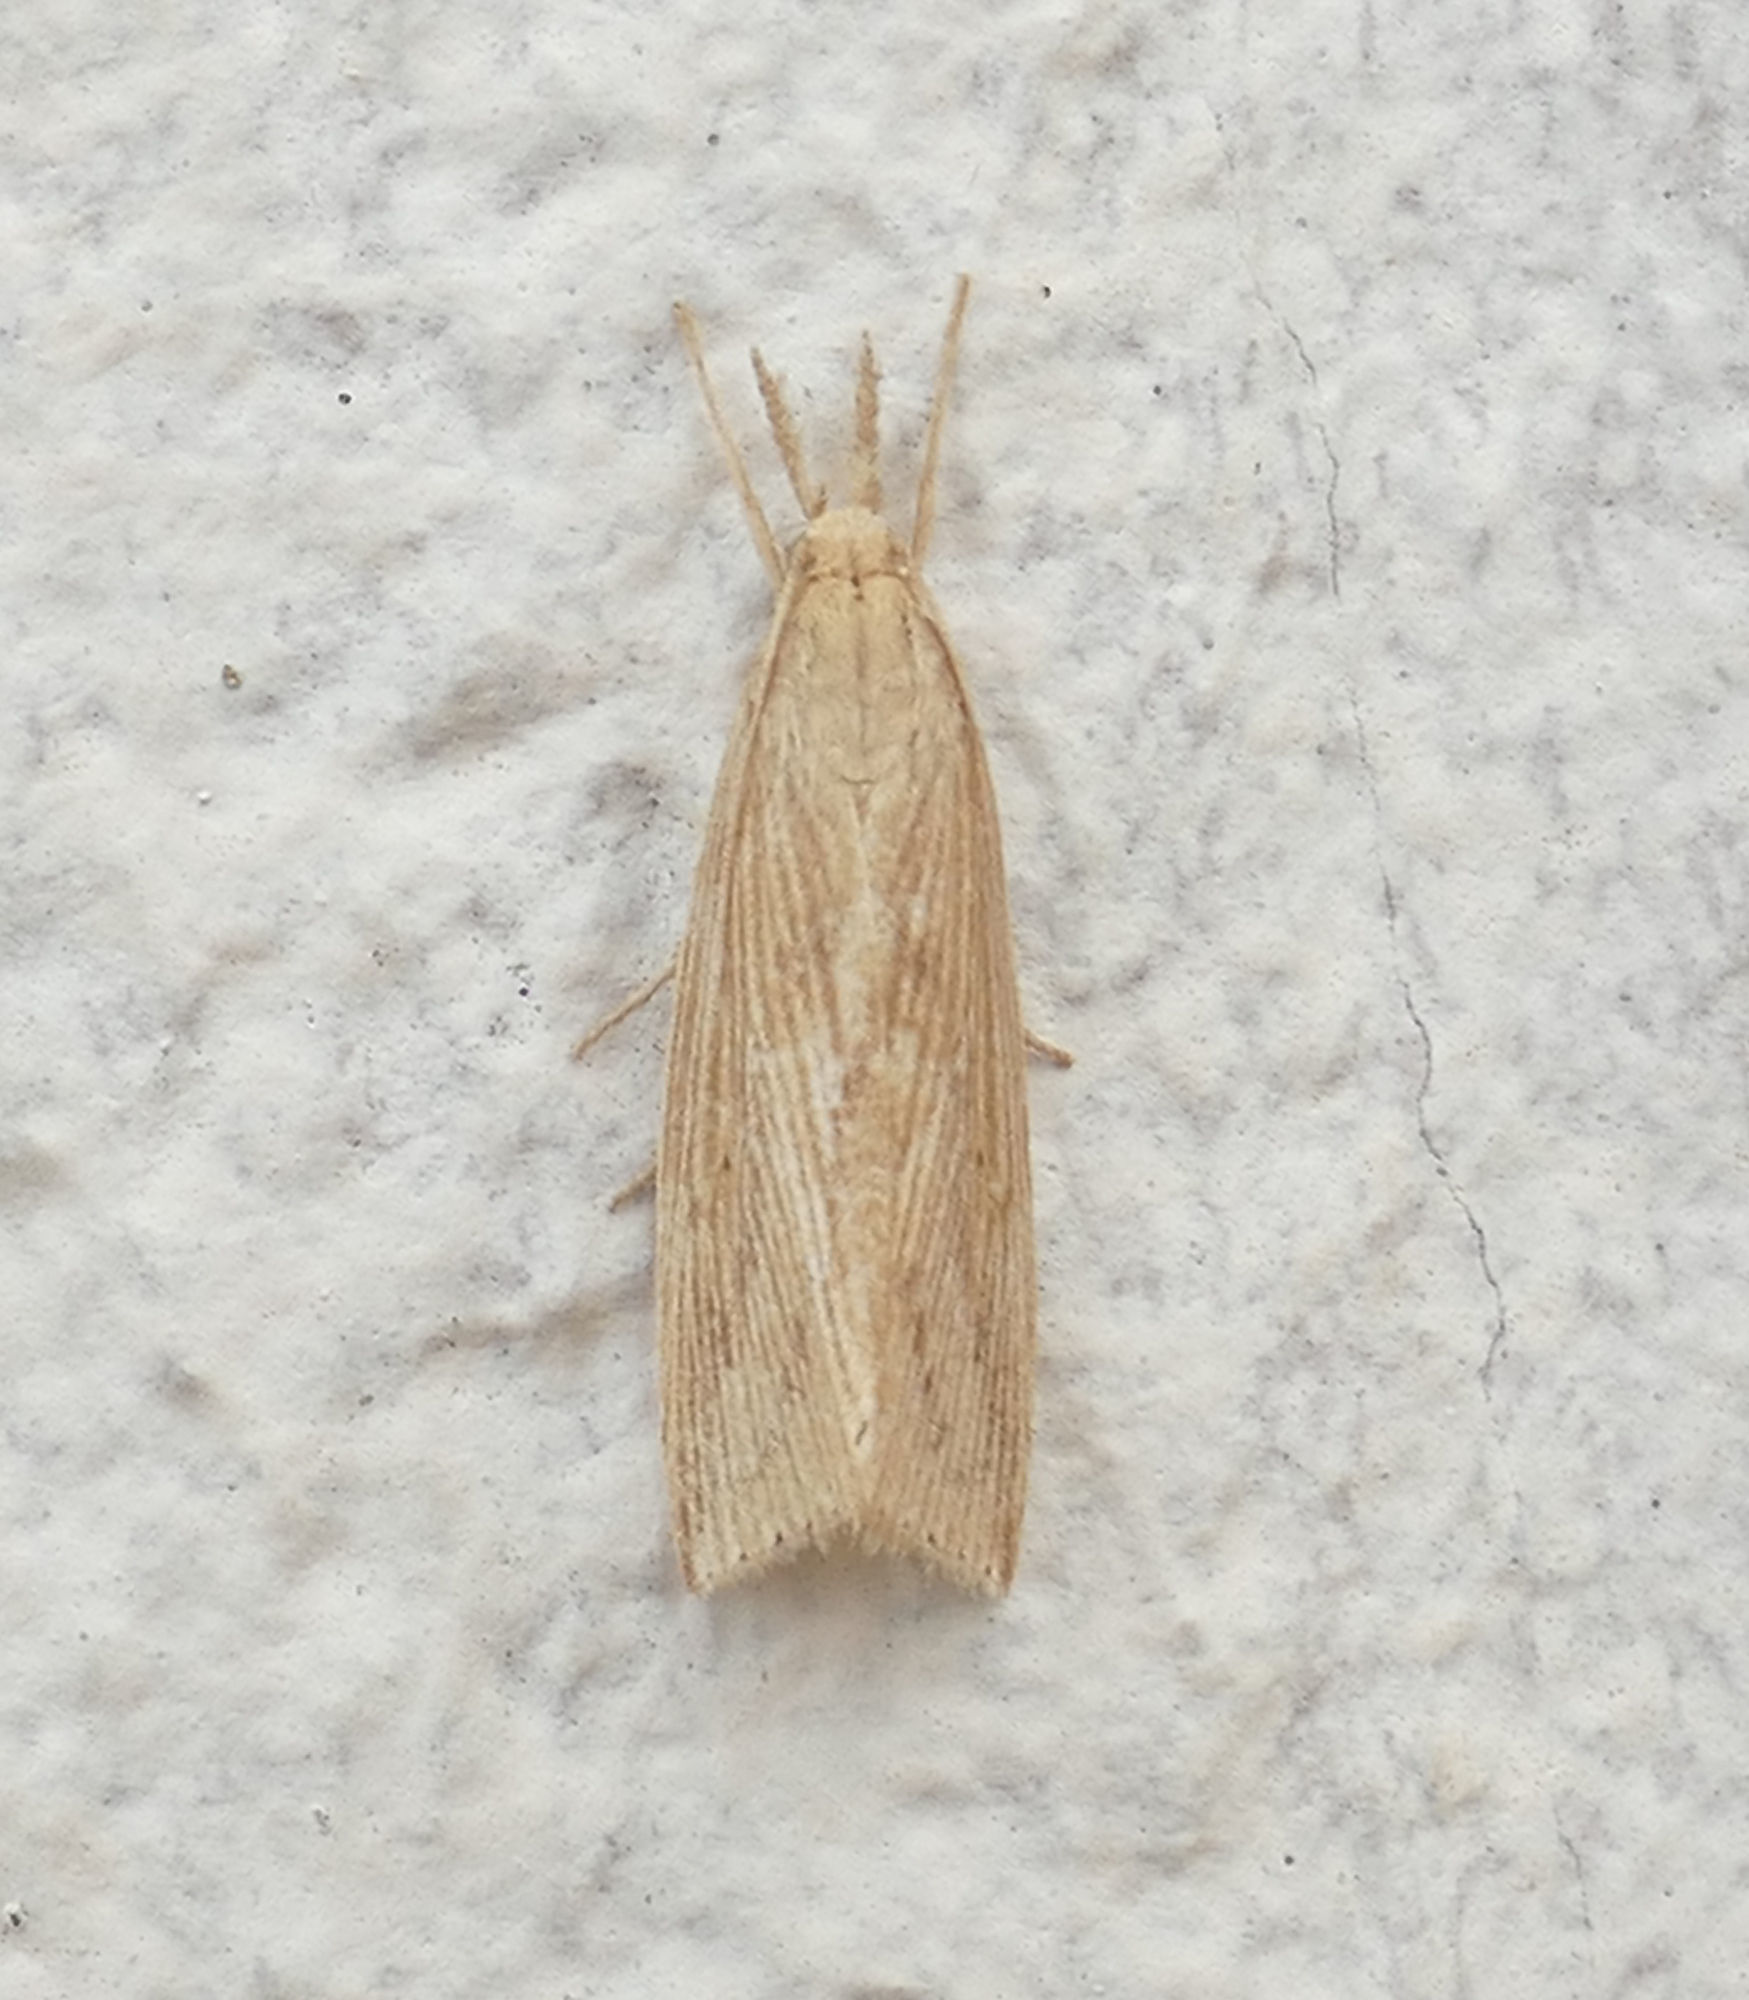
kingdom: Animalia
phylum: Arthropoda
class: Insecta
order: Lepidoptera
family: Crambidae
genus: Diatraea
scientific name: Diatraea lisetta
